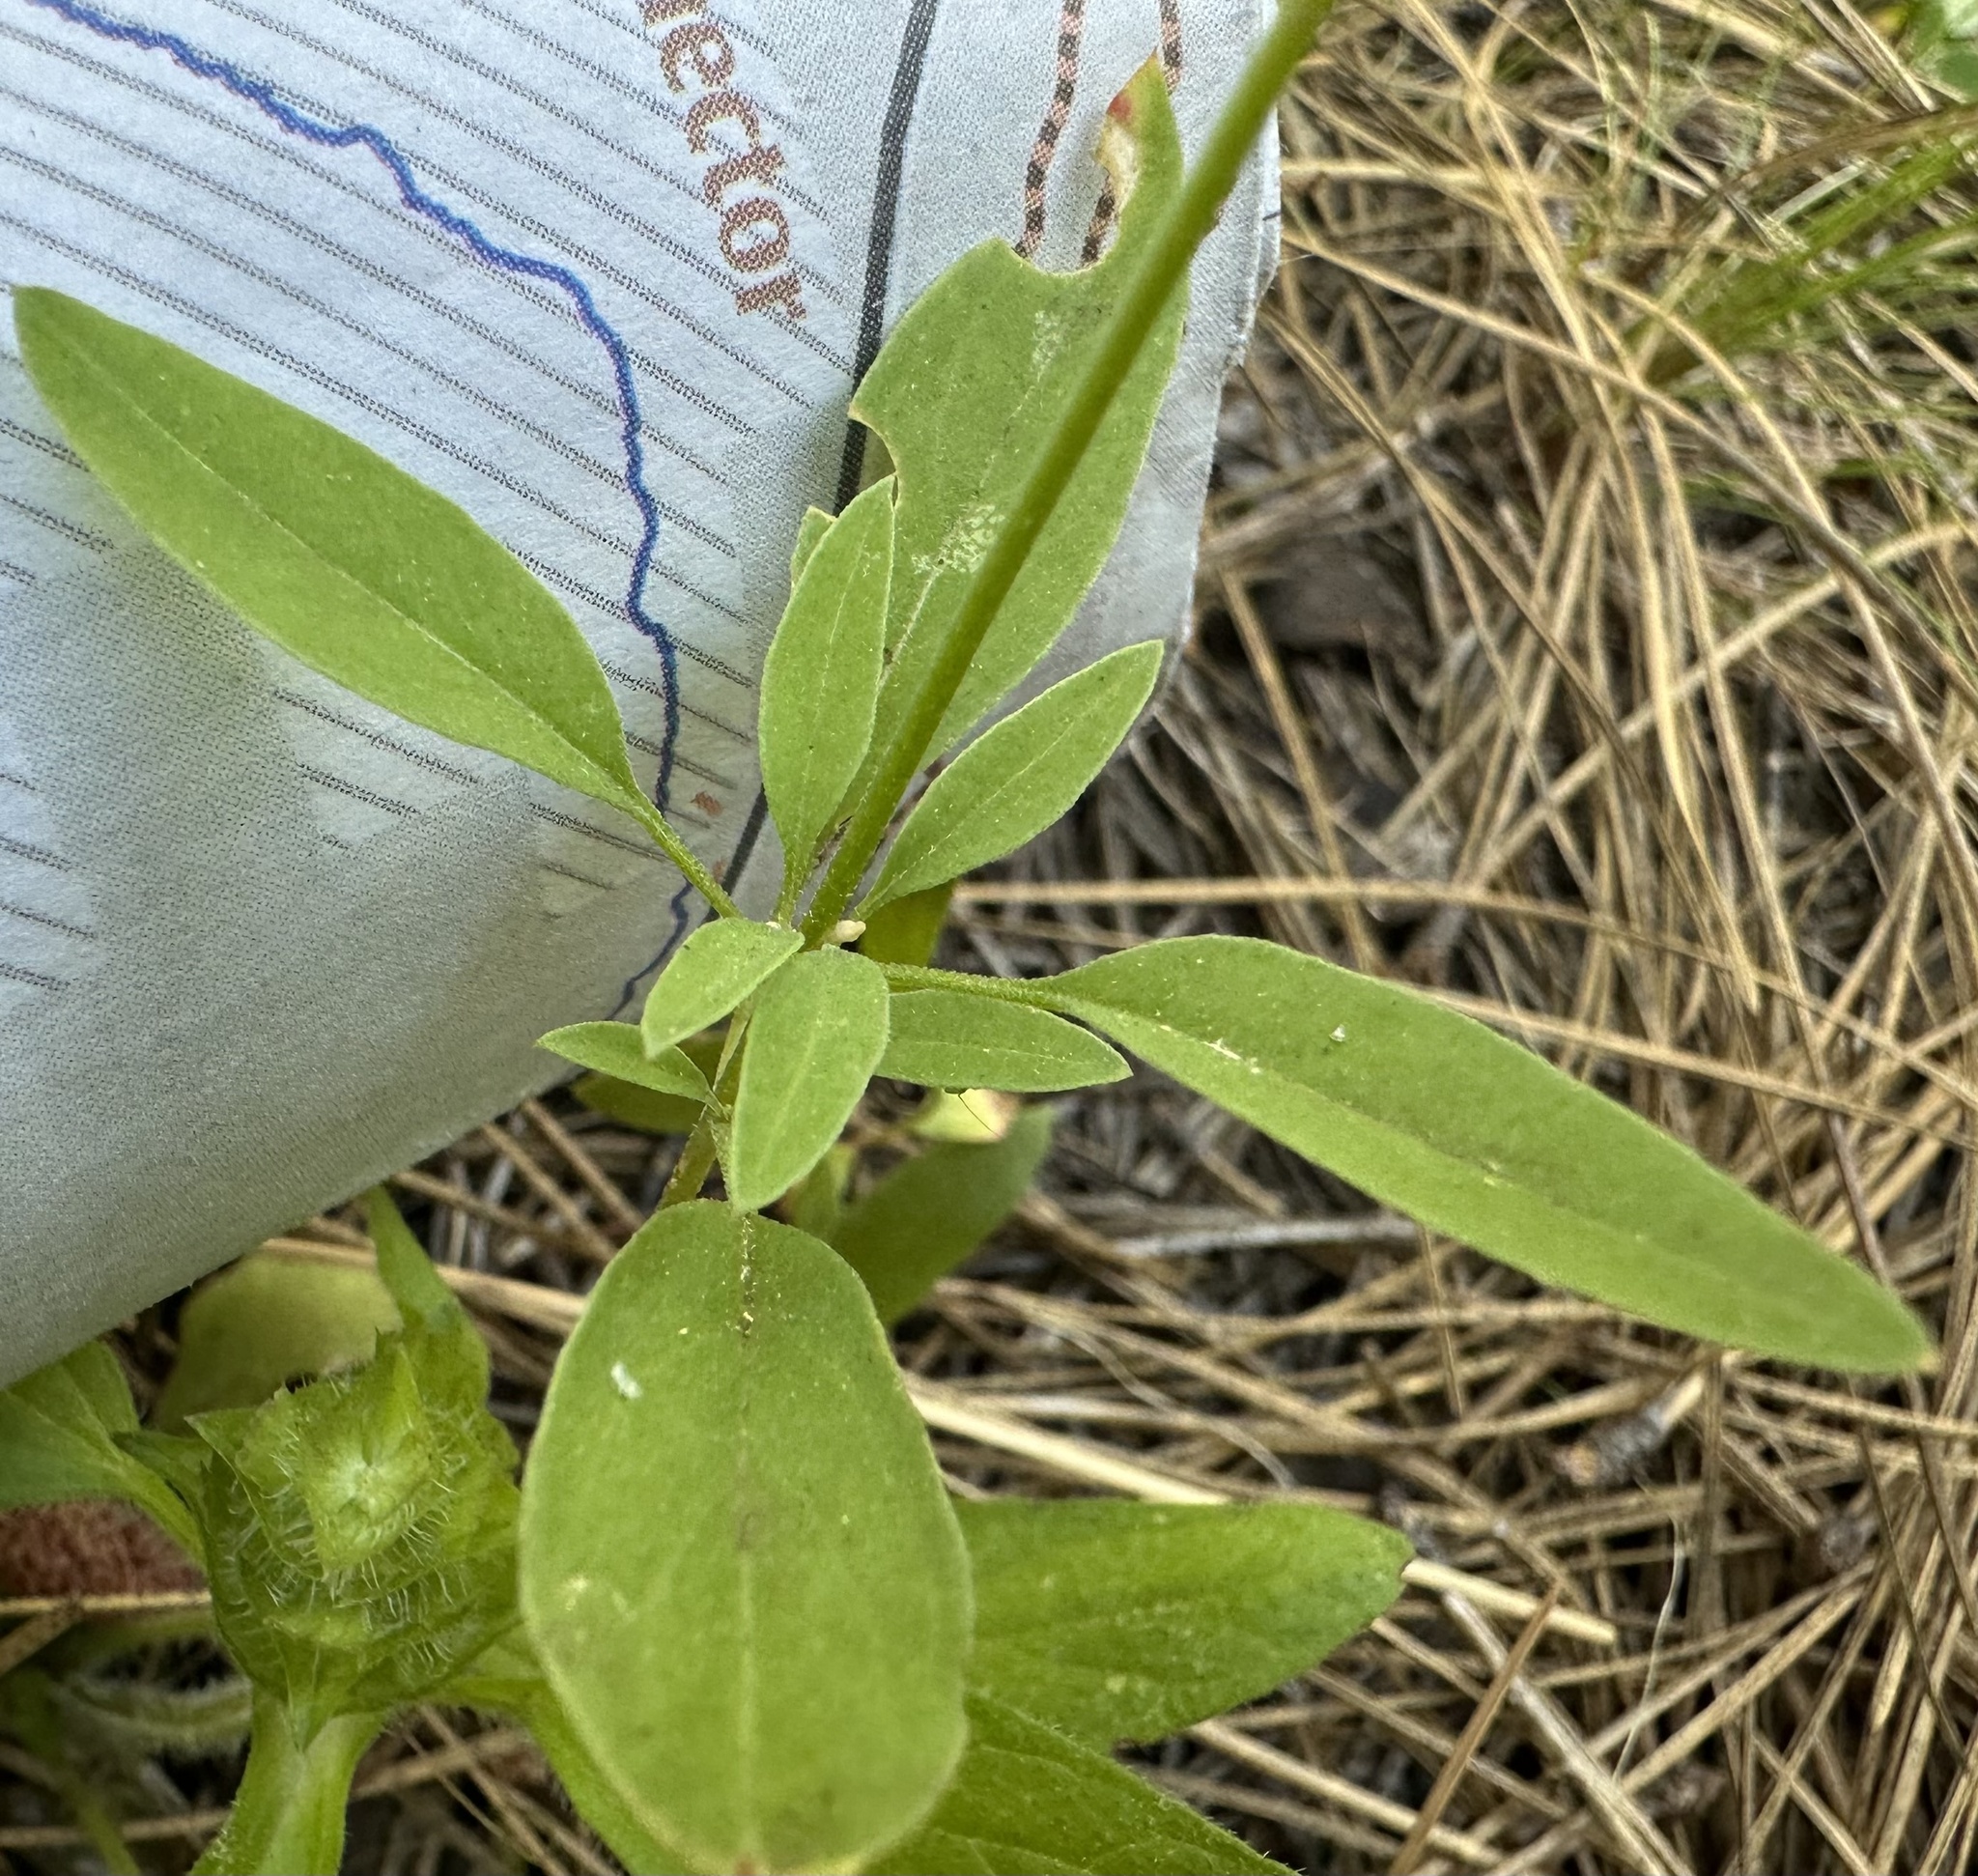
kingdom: Plantae
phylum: Tracheophyta
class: Magnoliopsida
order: Myrtales
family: Onagraceae
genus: Clarkia
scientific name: Clarkia rhomboidea
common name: Broadleaf clarkia
